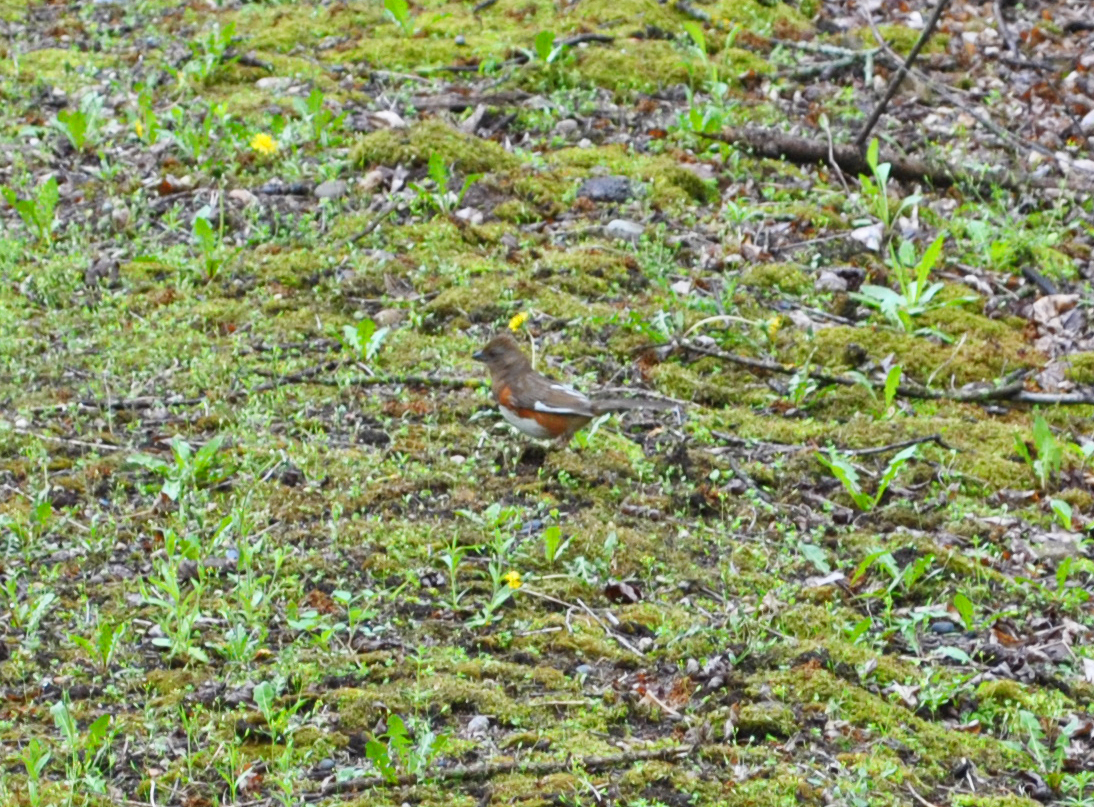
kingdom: Animalia
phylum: Chordata
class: Aves
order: Passeriformes
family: Passerellidae
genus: Pipilo
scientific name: Pipilo erythrophthalmus
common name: Eastern towhee
